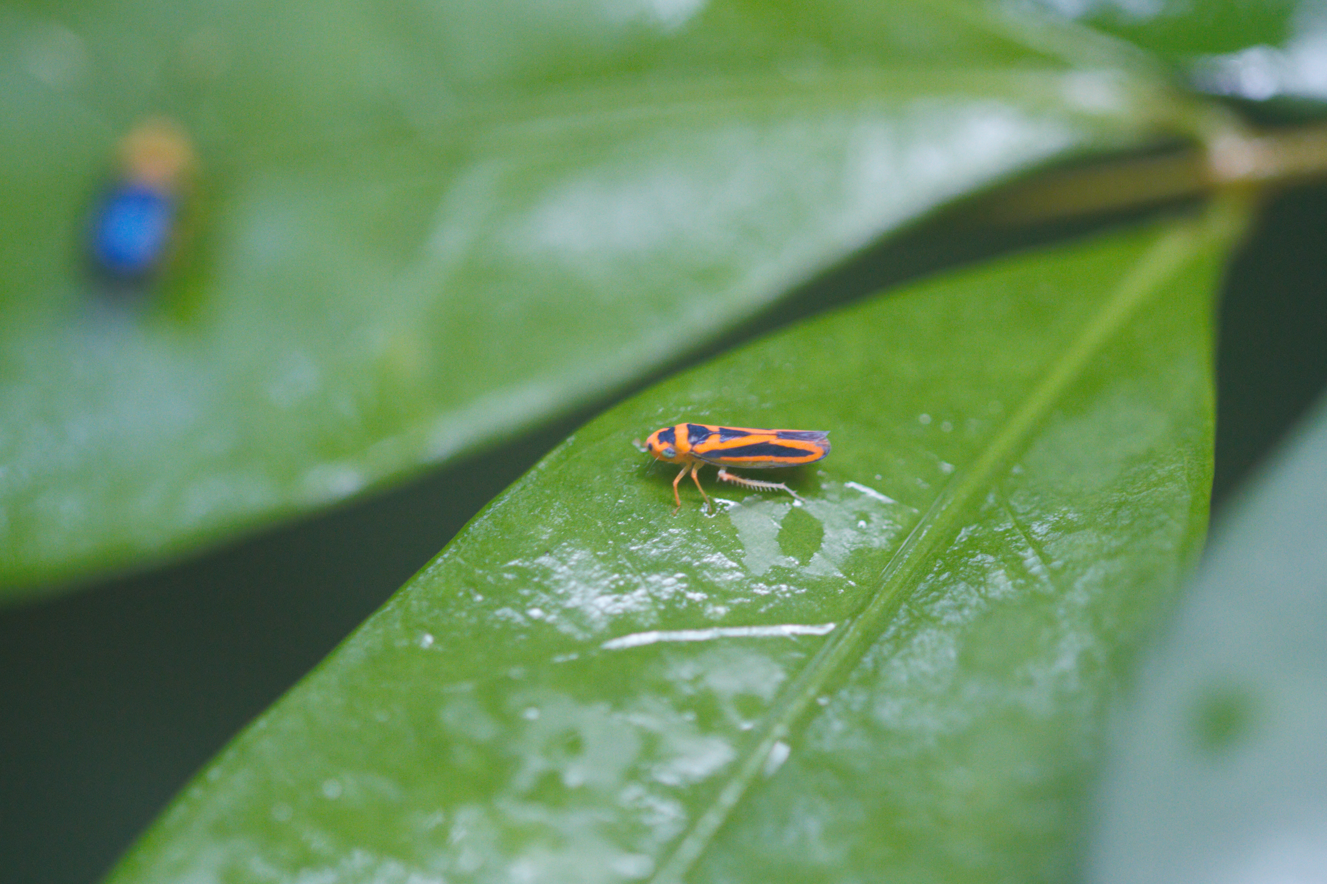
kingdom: Animalia
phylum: Arthropoda
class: Insecta
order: Hemiptera
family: Cicadellidae
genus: Palingonalia
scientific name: Palingonalia bigutta
